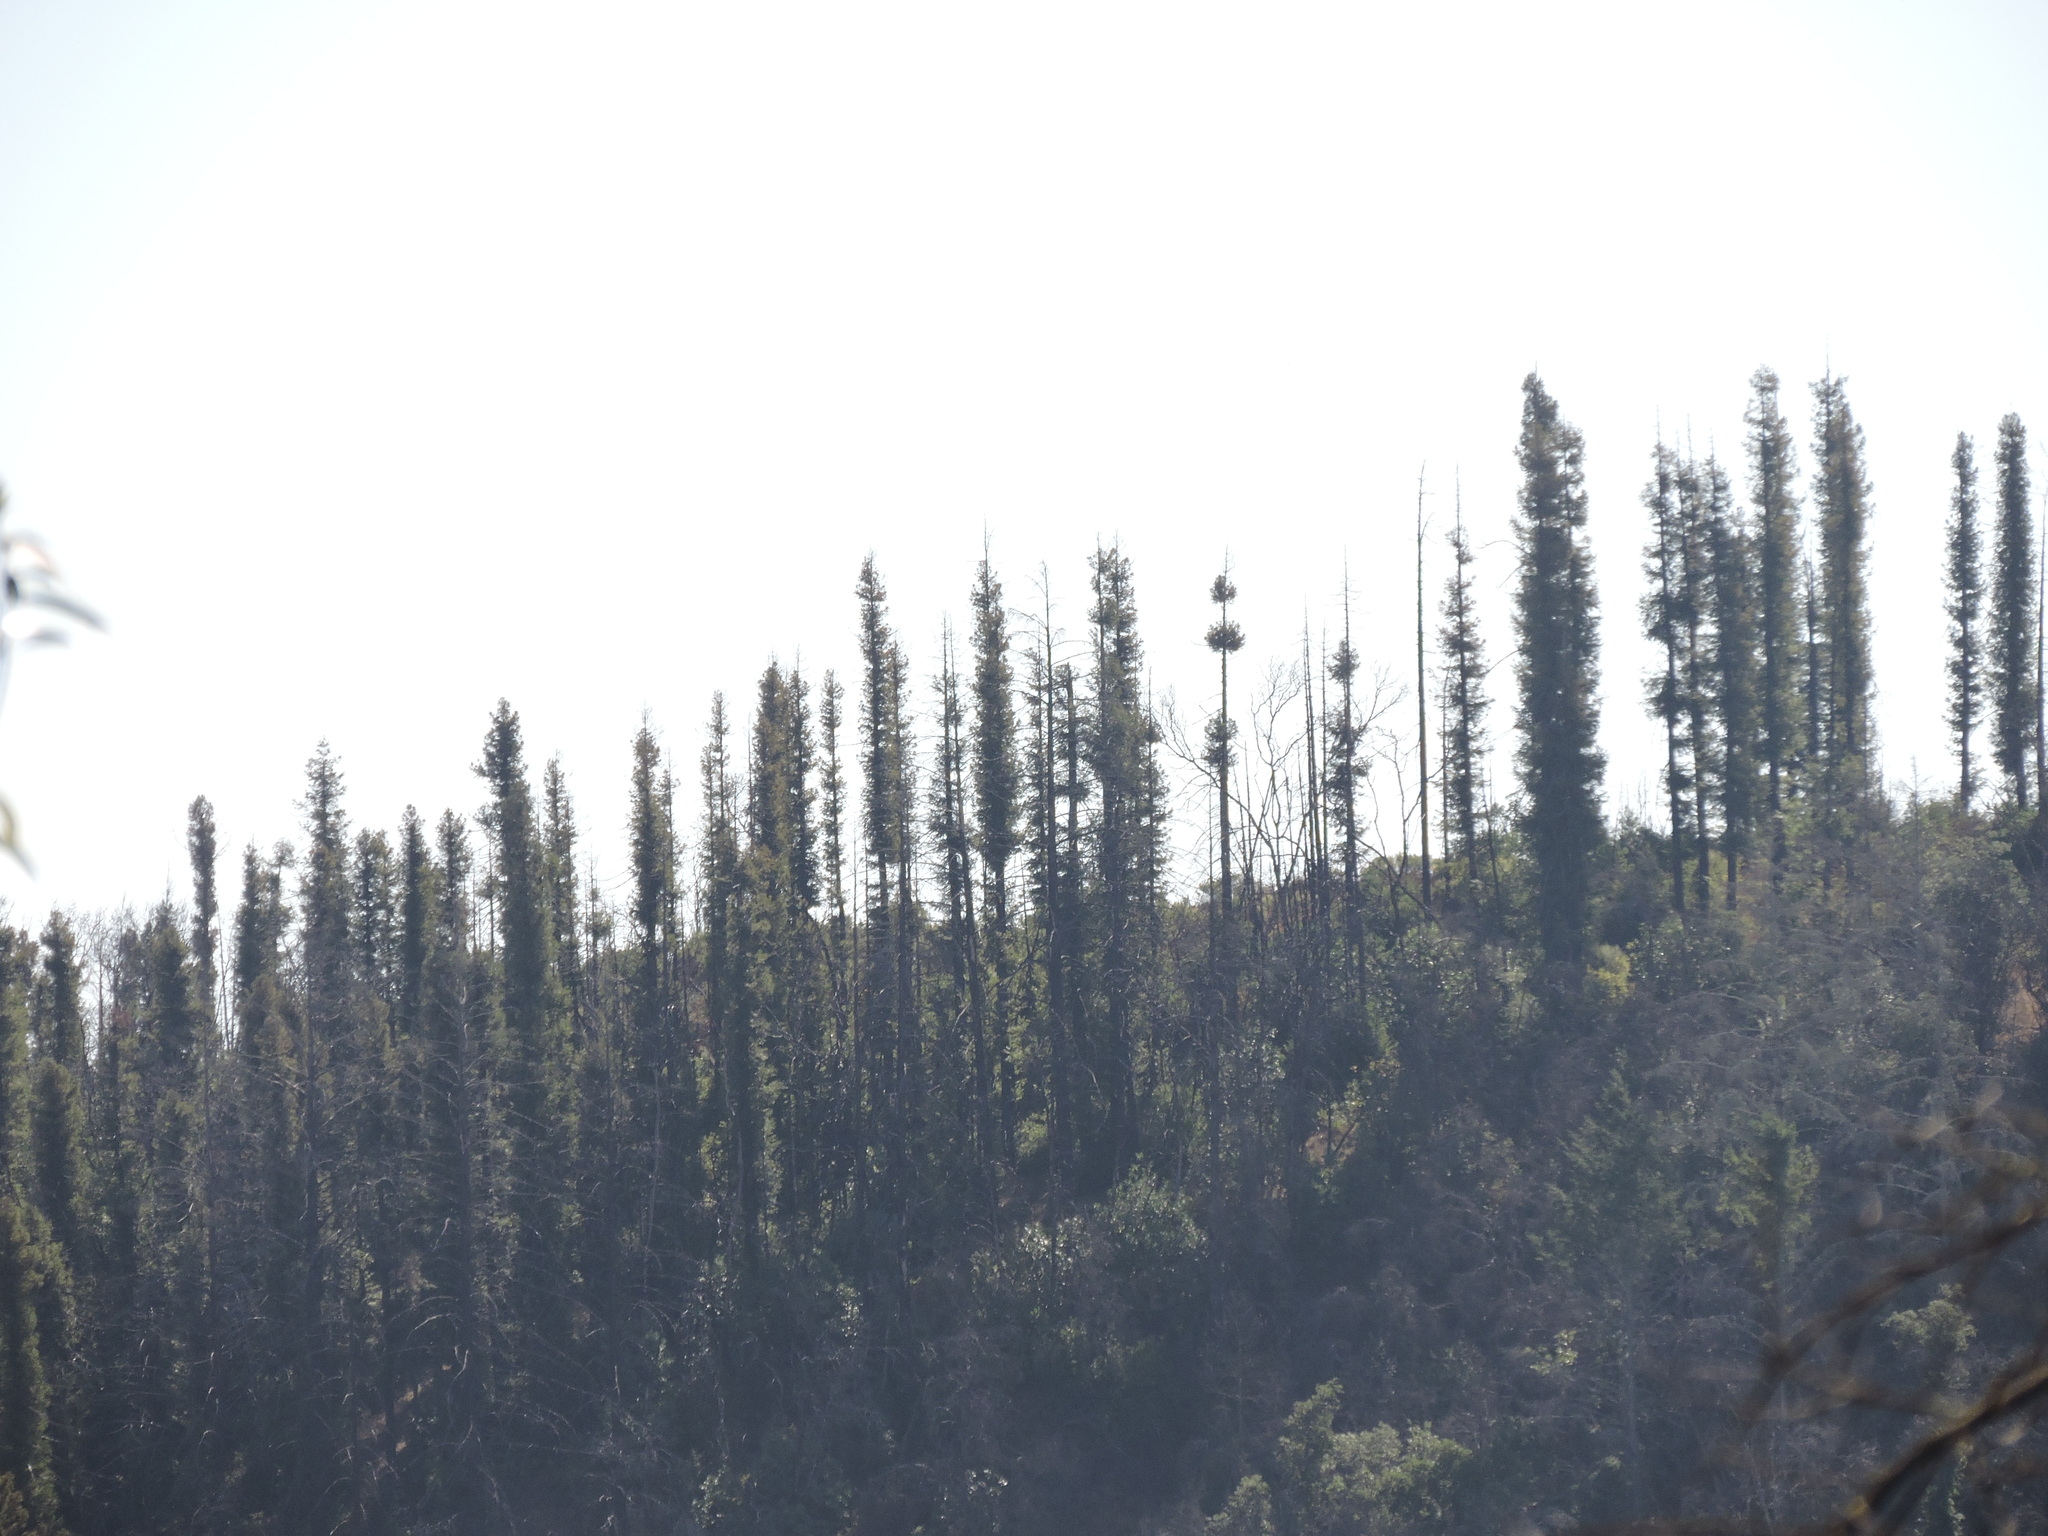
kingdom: Plantae
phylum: Tracheophyta
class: Pinopsida
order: Pinales
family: Cupressaceae
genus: Sequoia
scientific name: Sequoia sempervirens
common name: Coast redwood
